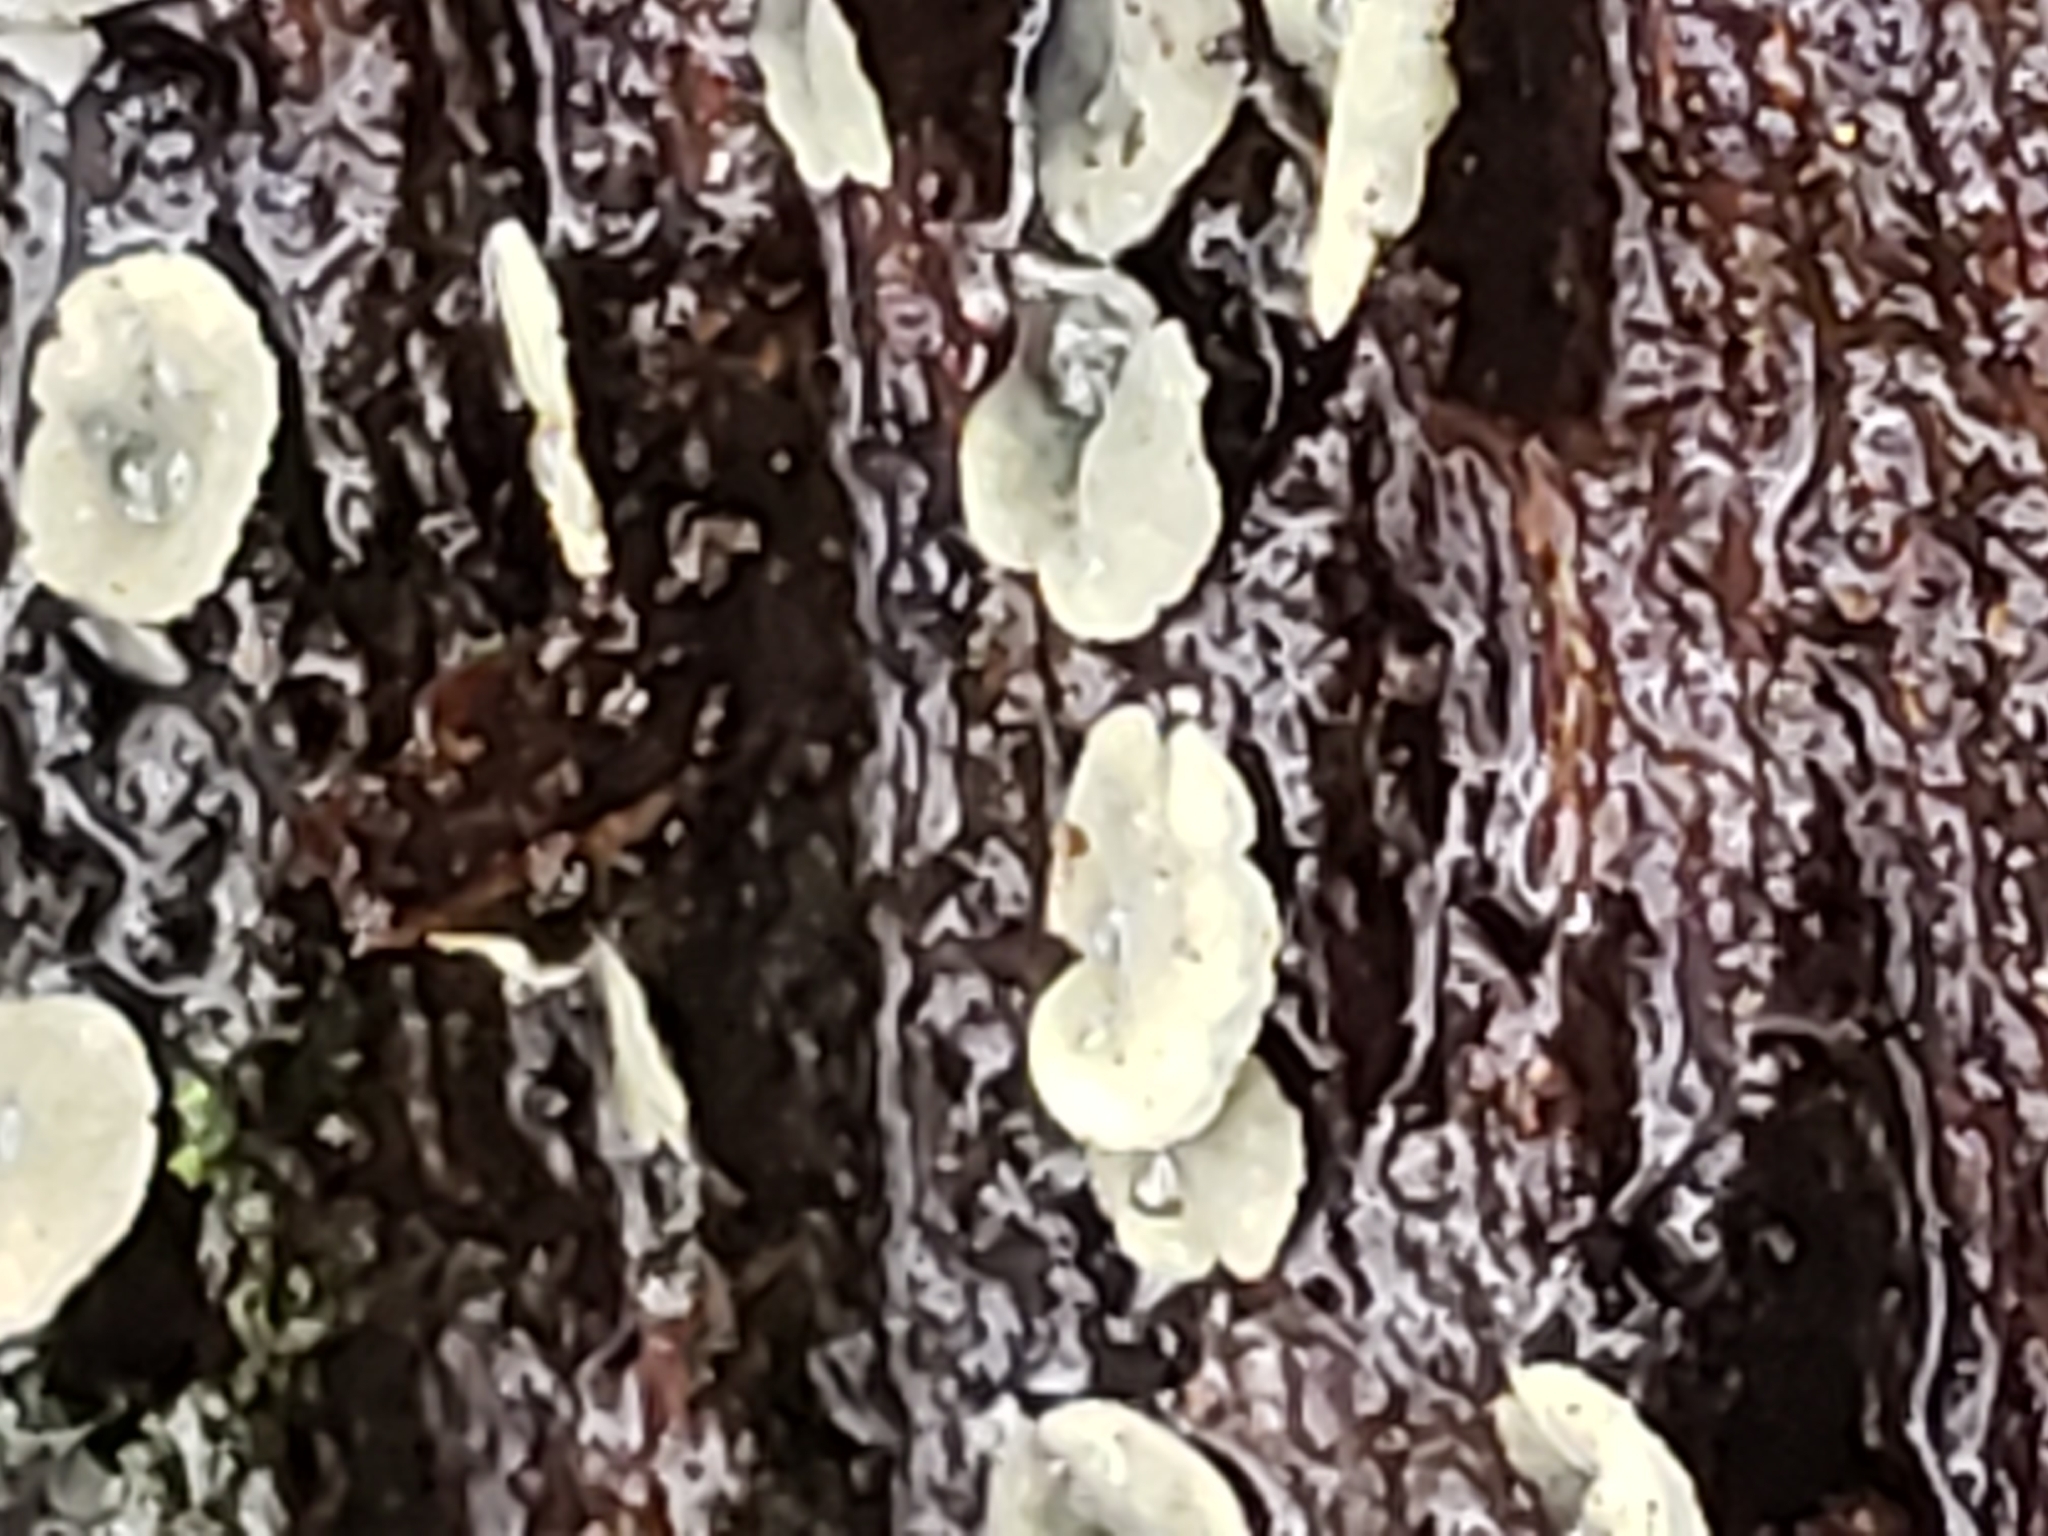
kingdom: Fungi
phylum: Ascomycota
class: Leotiomycetes
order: Helotiales
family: Chlorospleniaceae
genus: Chlorosplenium
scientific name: Chlorosplenium chlora
